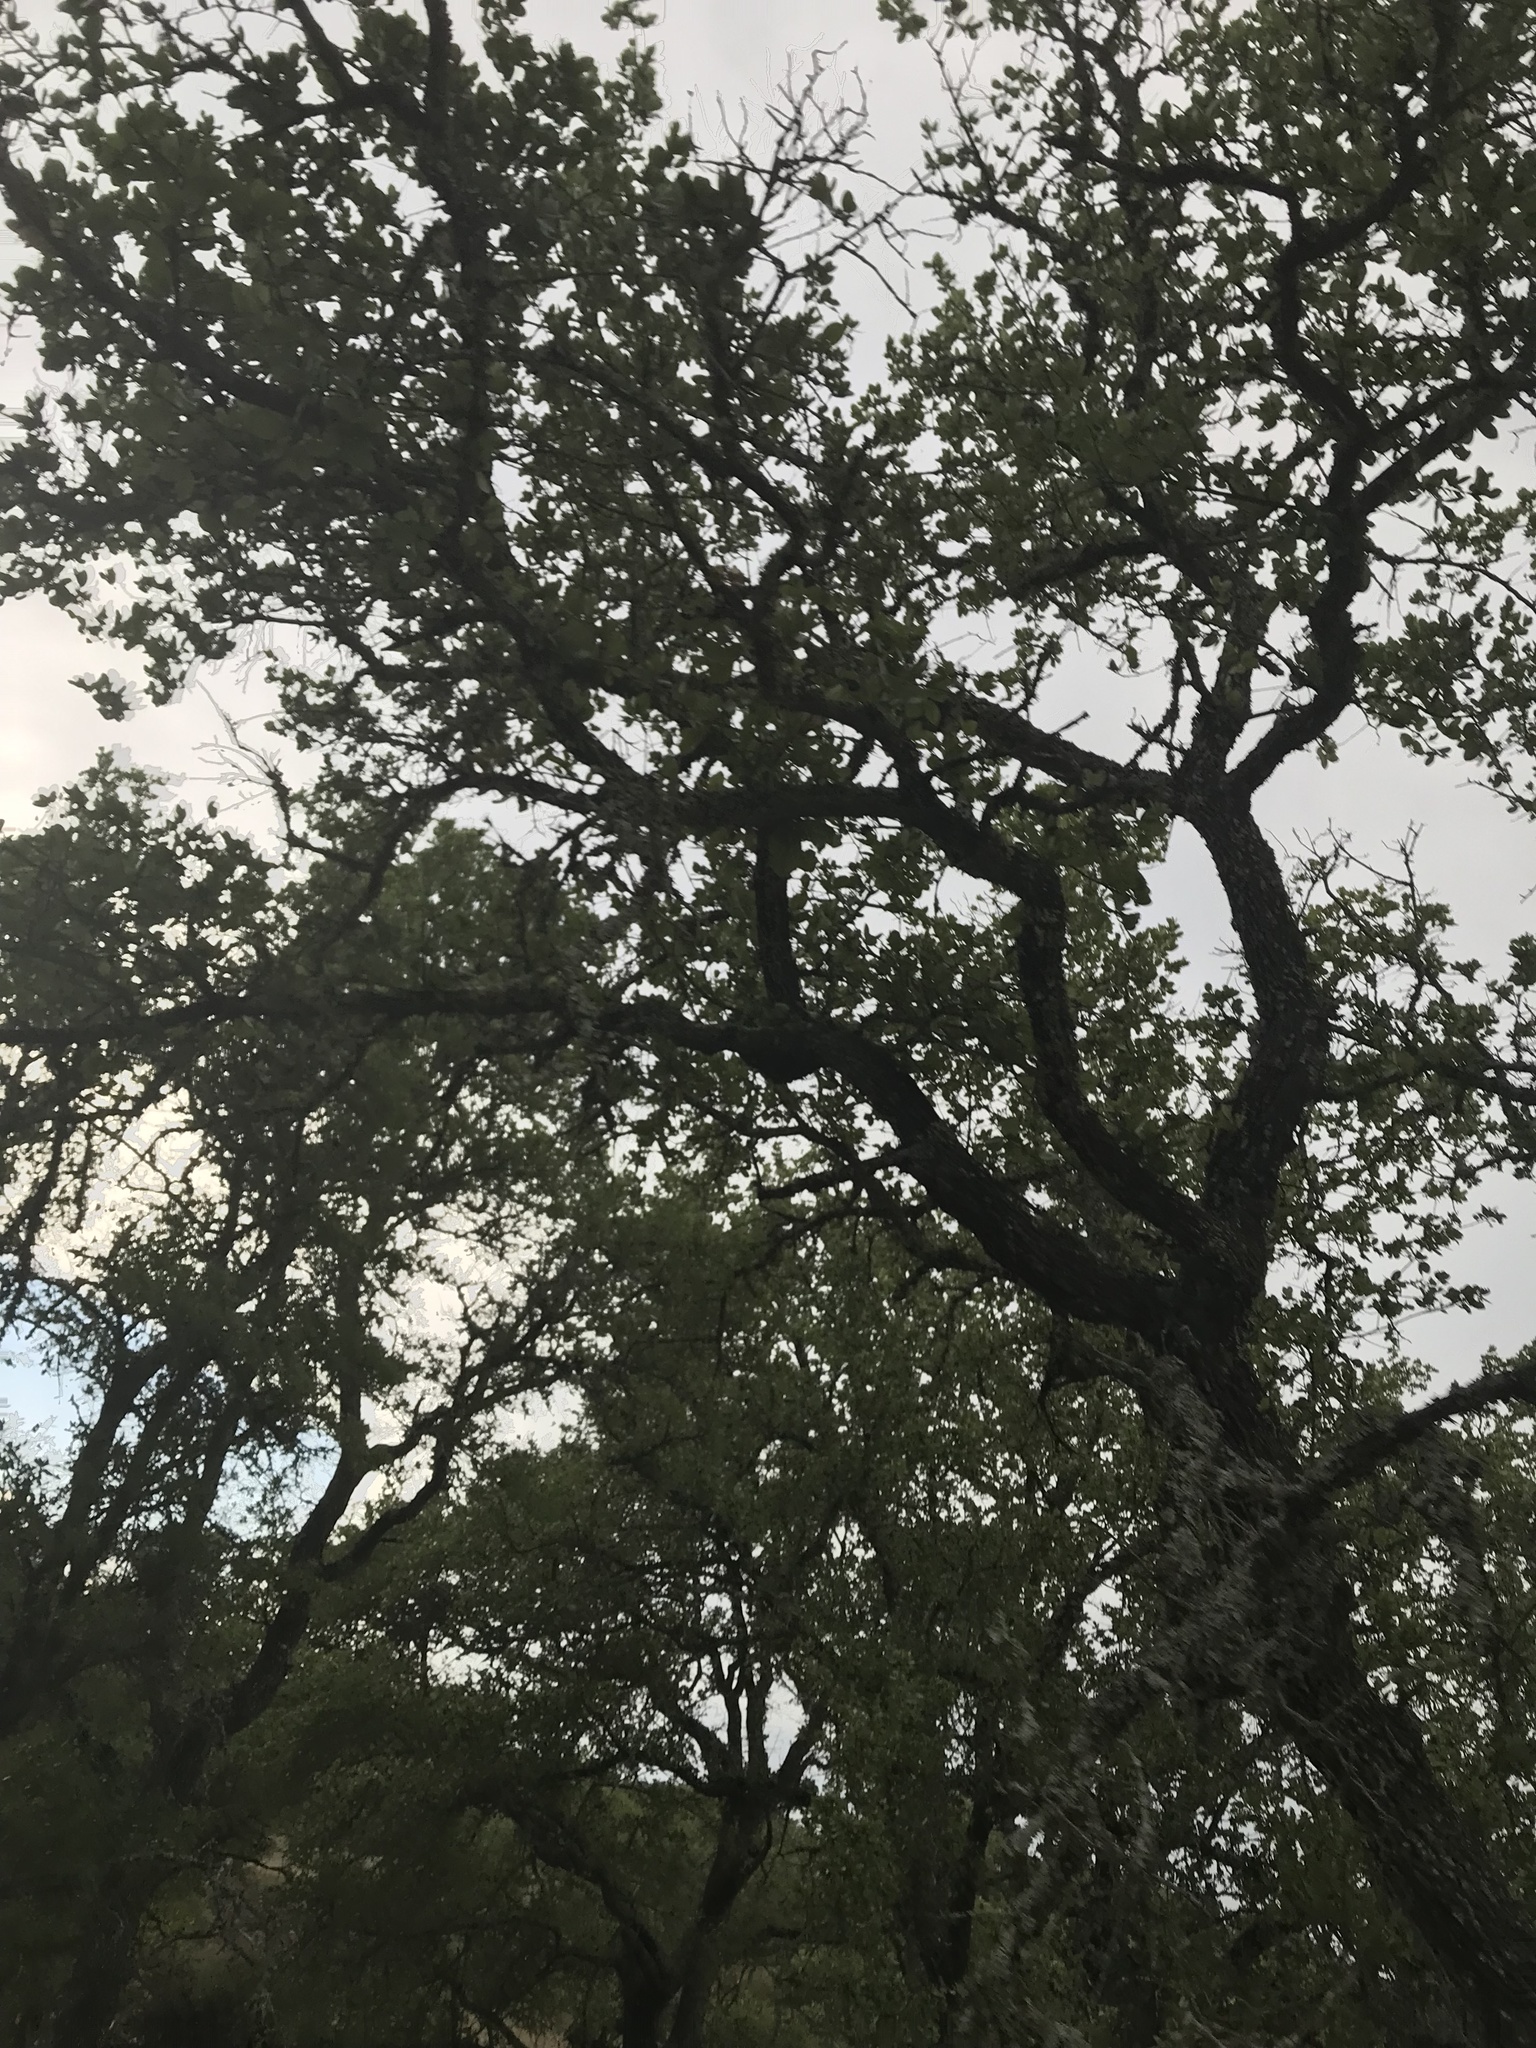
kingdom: Plantae
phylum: Tracheophyta
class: Magnoliopsida
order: Fagales
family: Fagaceae
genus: Quercus
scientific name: Quercus fusiformis
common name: Texas live oak
